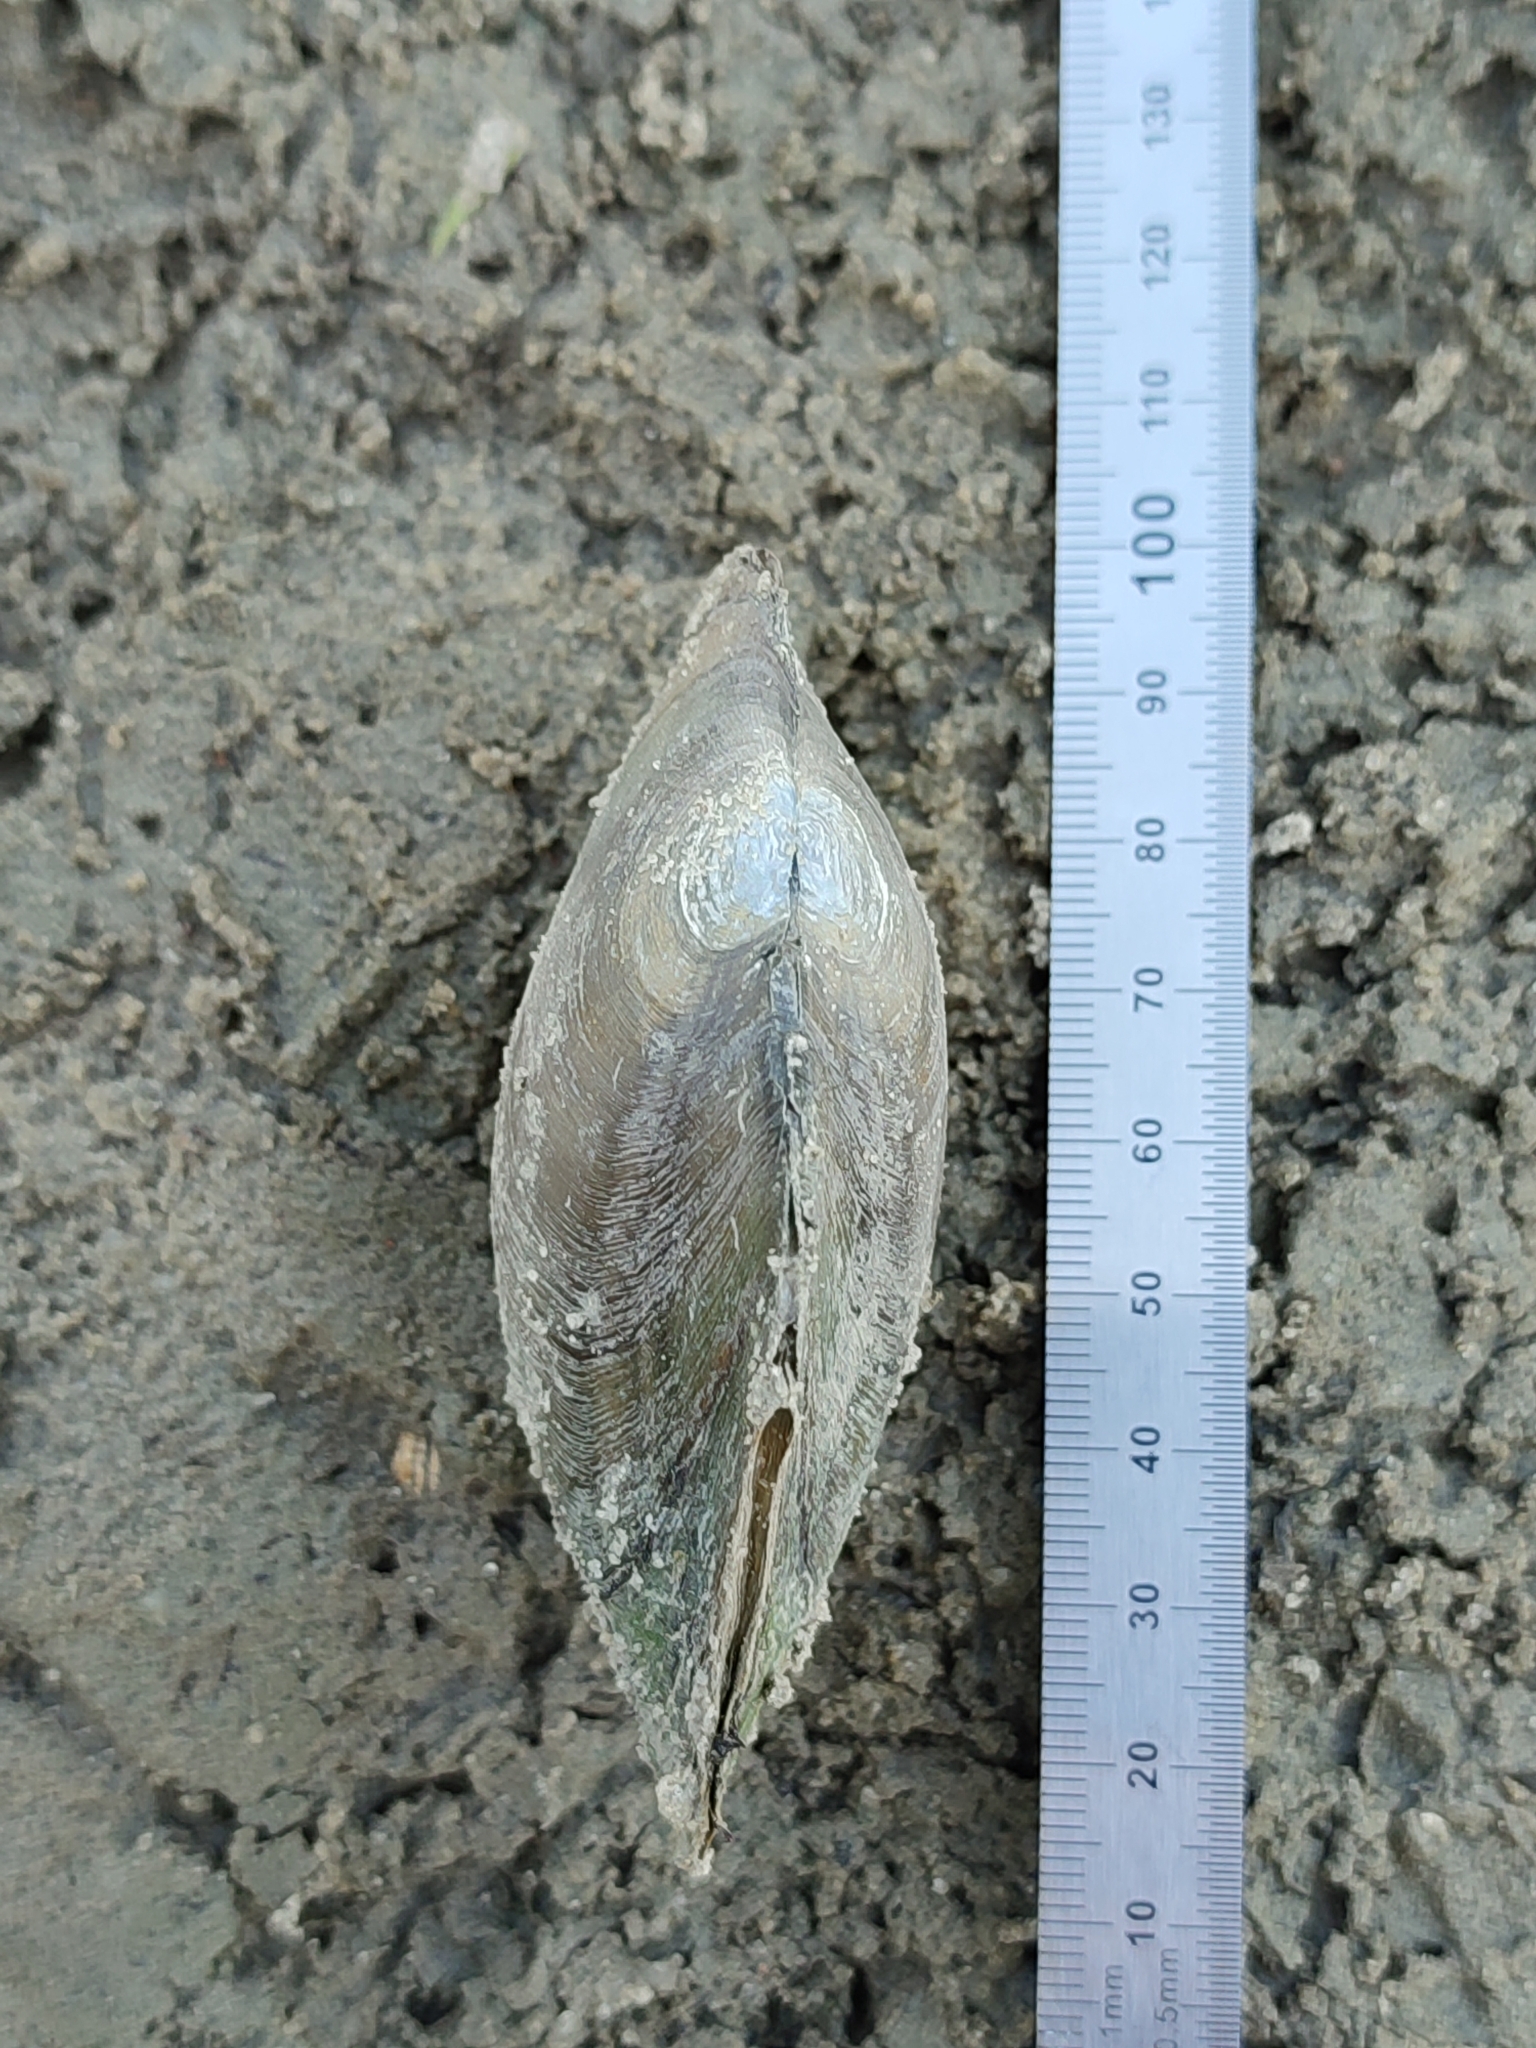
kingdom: Animalia
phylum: Mollusca
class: Bivalvia
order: Unionida
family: Unionidae
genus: Anodonta
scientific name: Anodonta anatina
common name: Duck mussel
